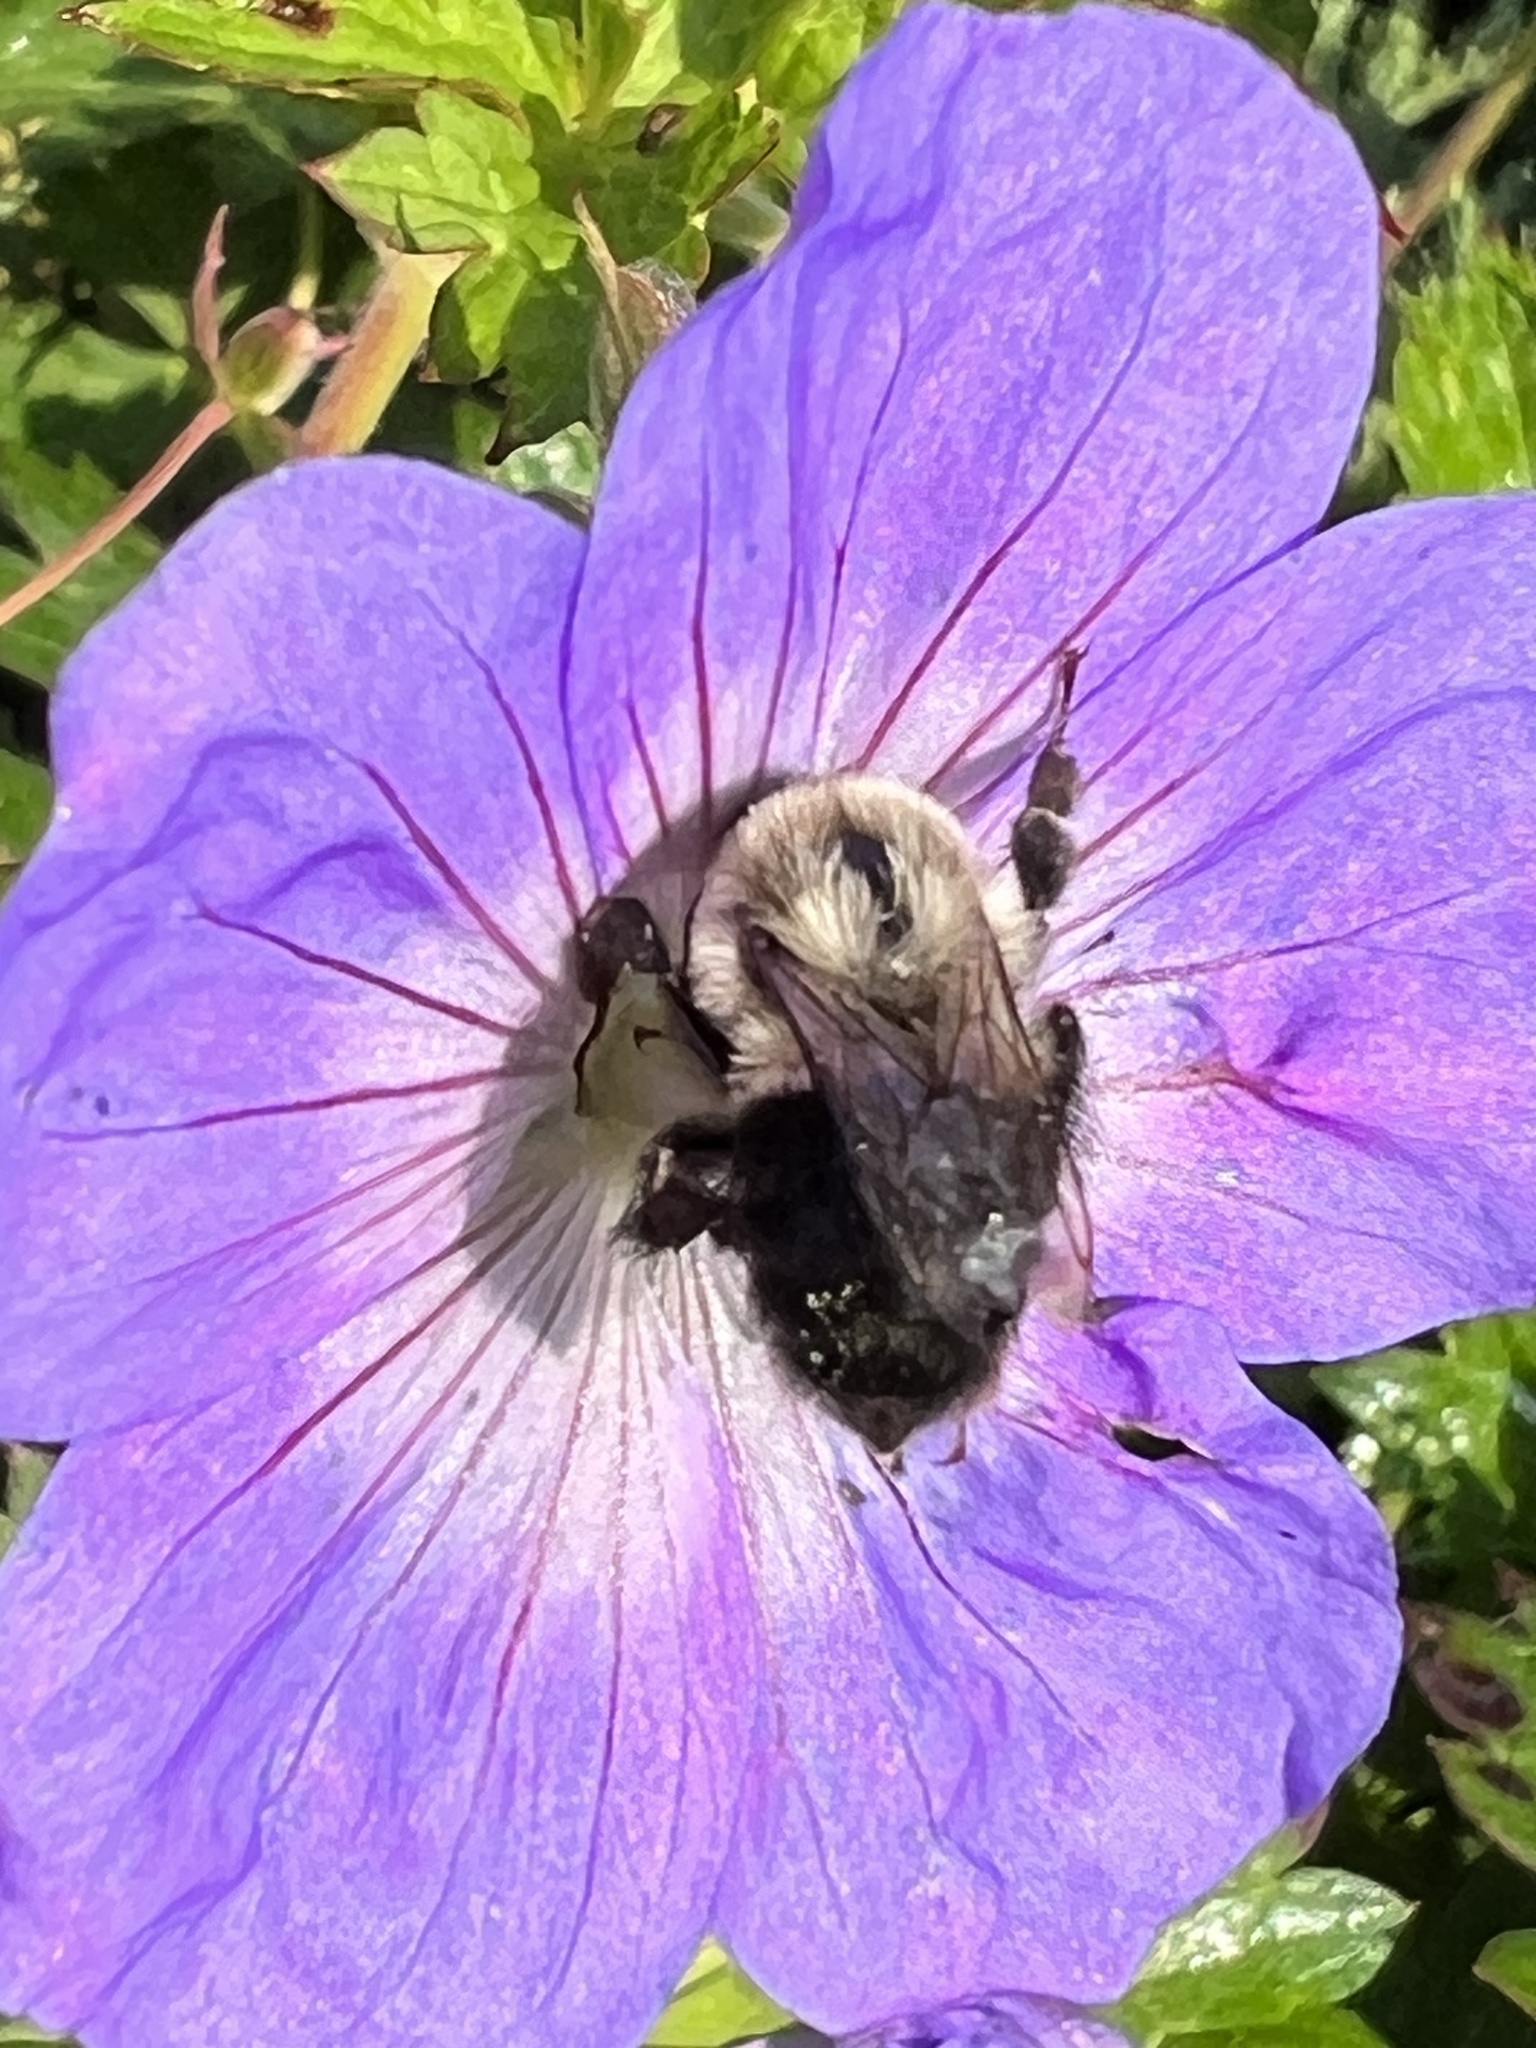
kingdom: Animalia
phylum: Arthropoda
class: Insecta
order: Hymenoptera
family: Apidae
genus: Bombus
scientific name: Bombus impatiens
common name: Common eastern bumble bee
